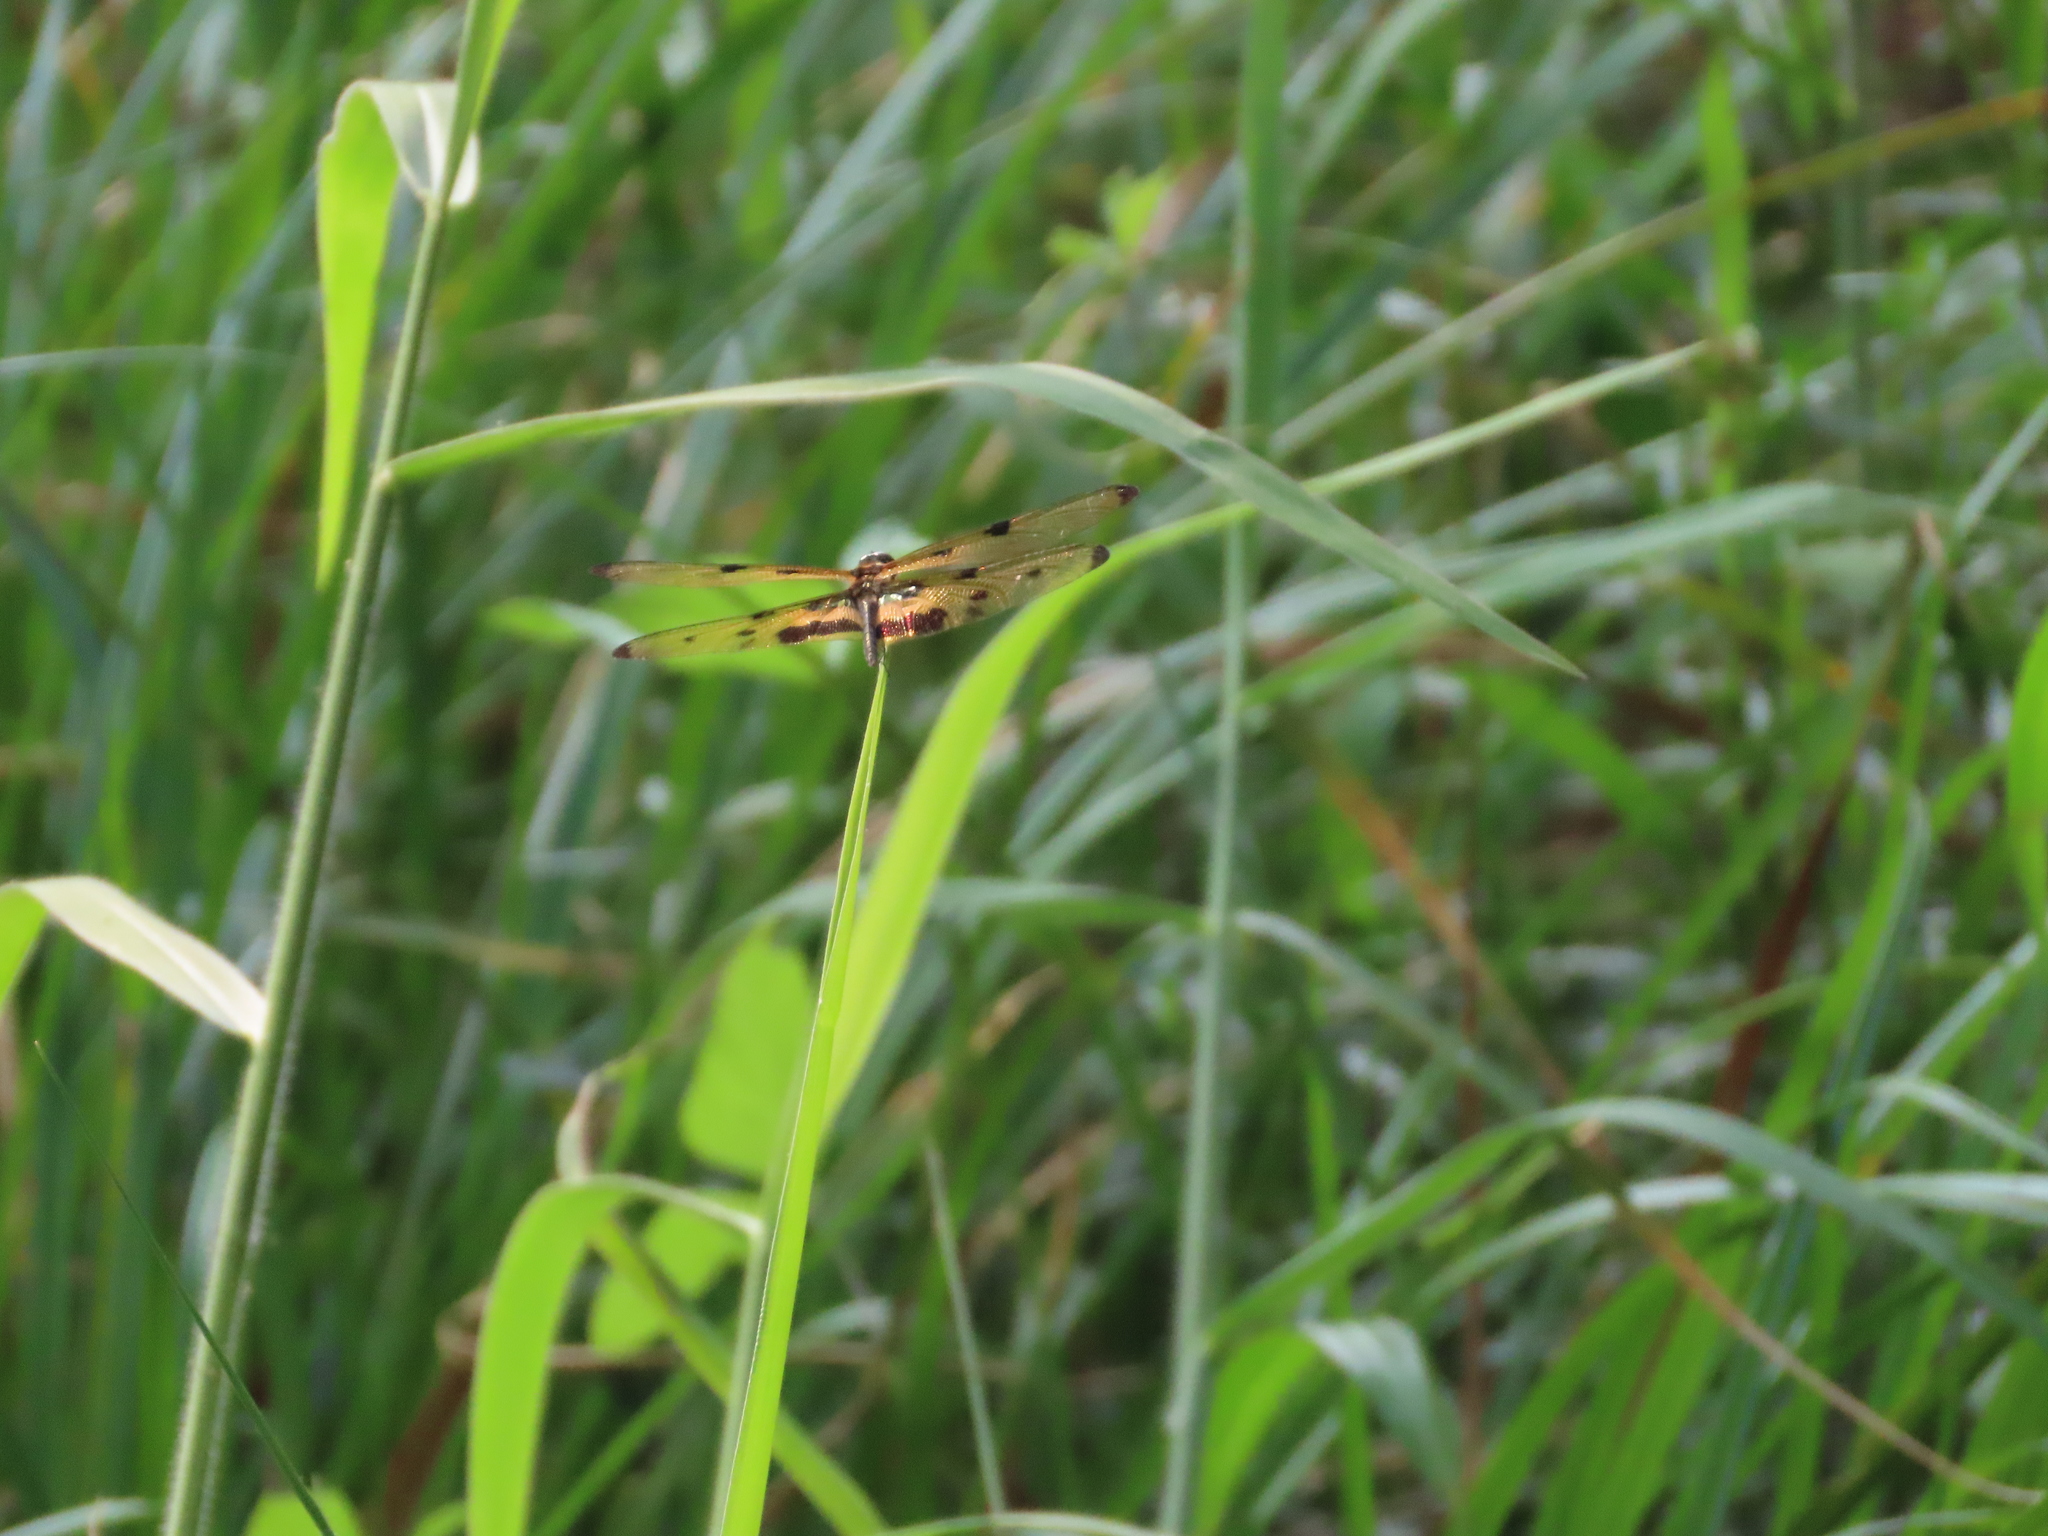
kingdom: Animalia
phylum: Arthropoda
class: Insecta
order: Odonata
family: Libellulidae
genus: Rhyothemis
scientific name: Rhyothemis variegata
